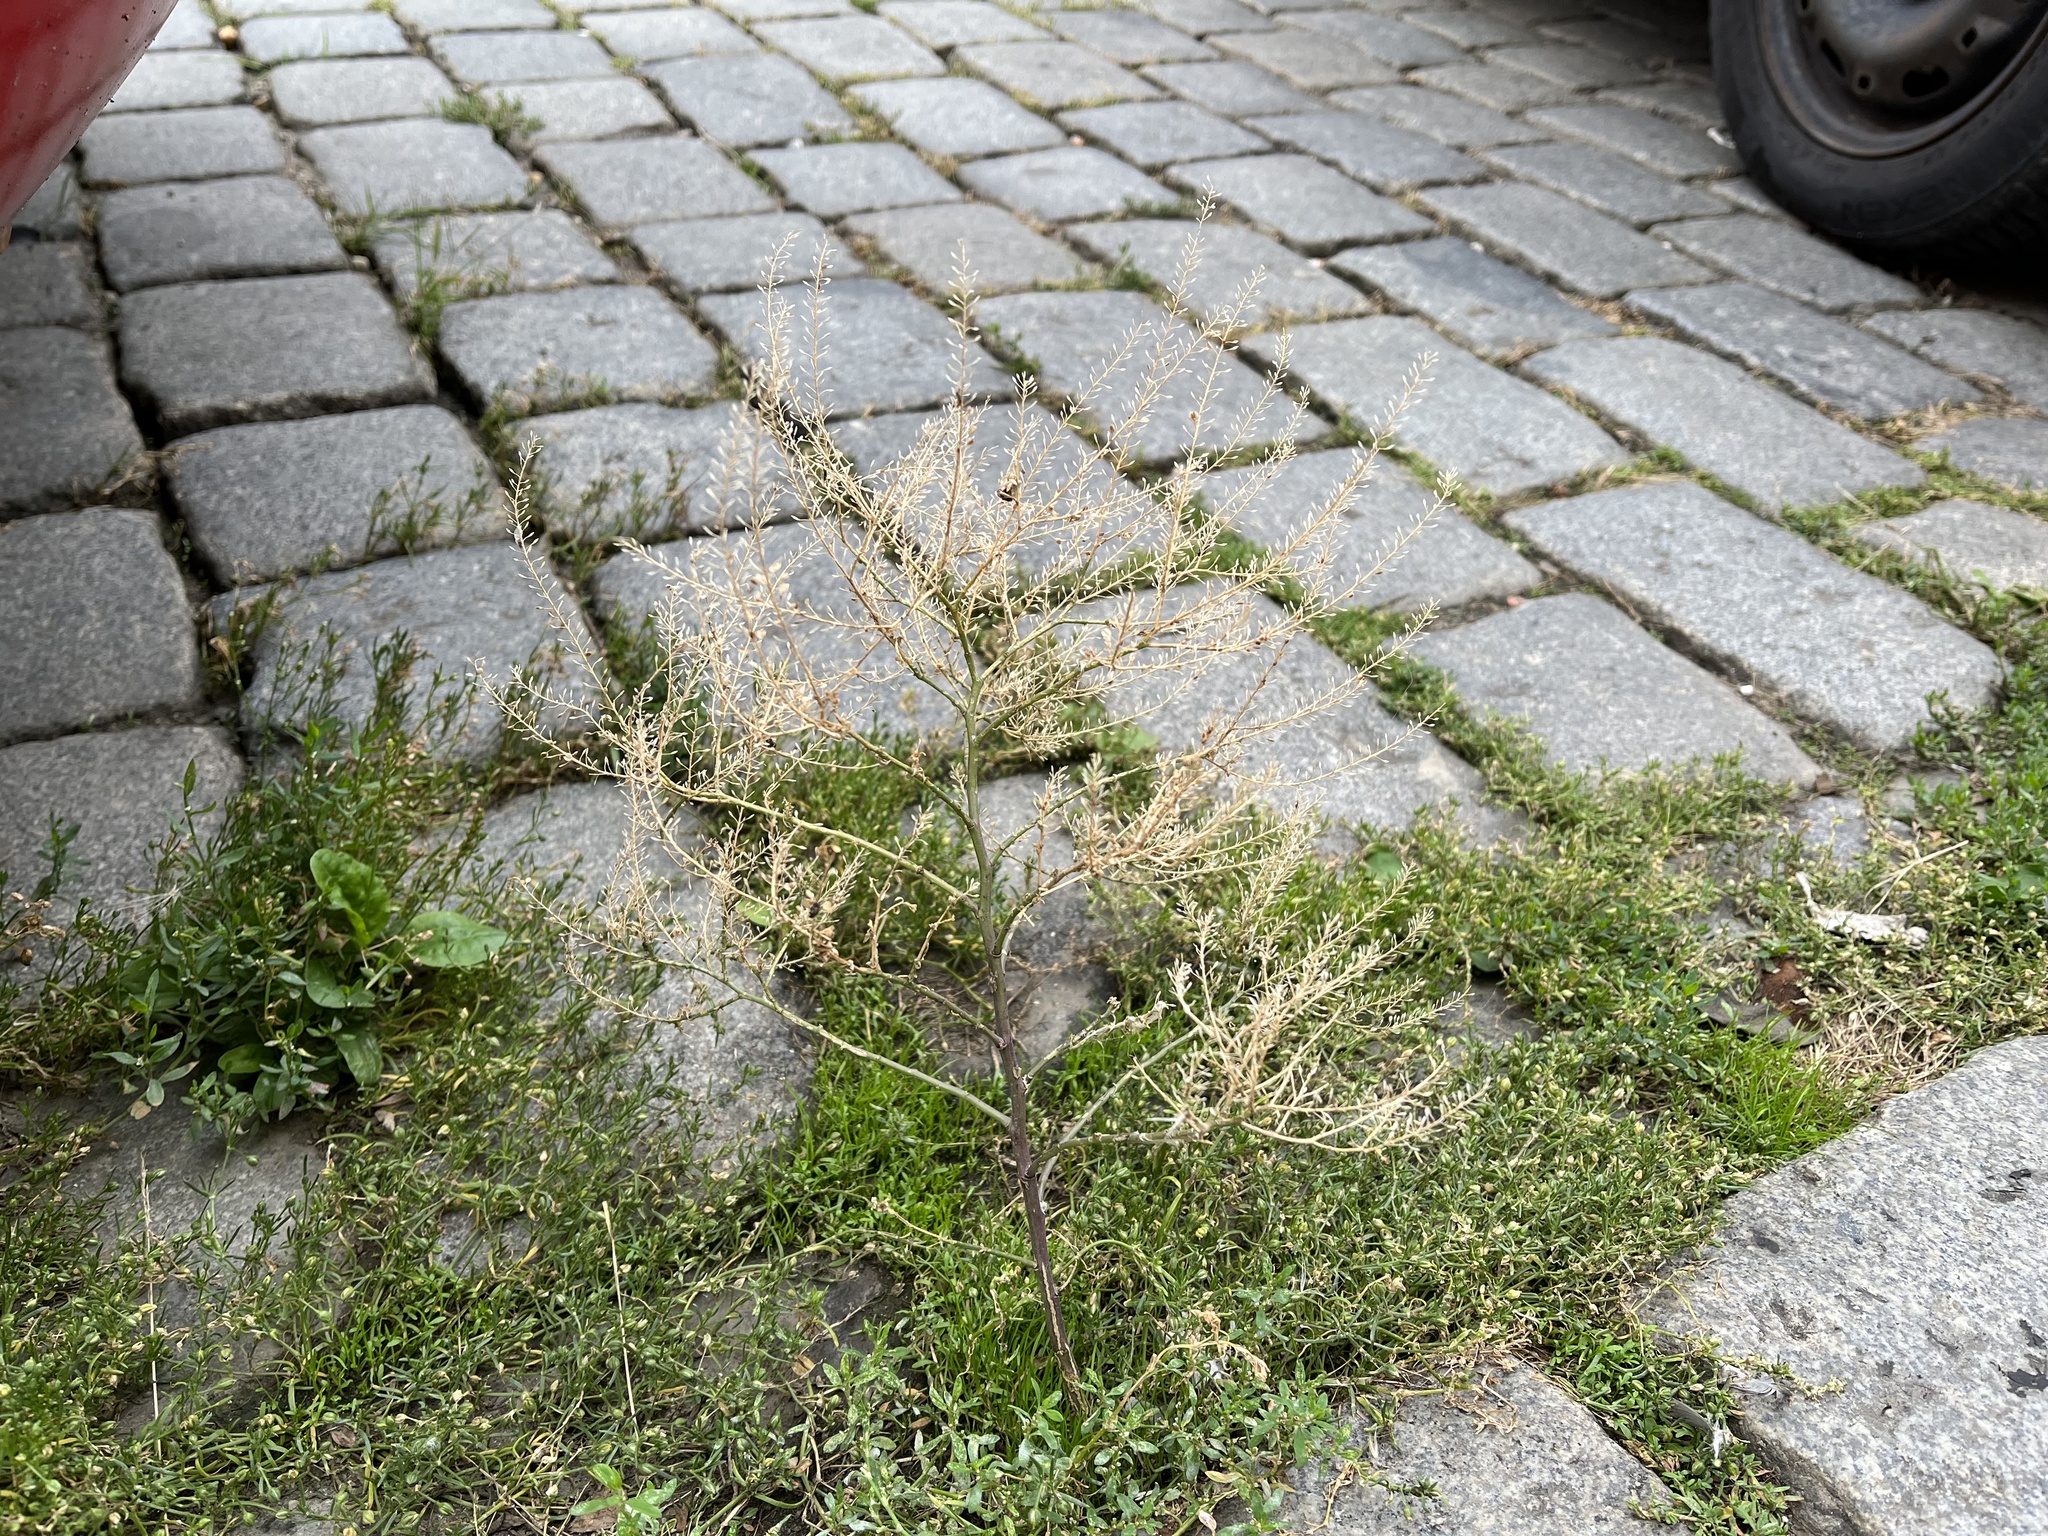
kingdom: Plantae
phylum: Tracheophyta
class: Magnoliopsida
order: Brassicales
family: Brassicaceae
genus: Lepidium
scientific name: Lepidium ruderale
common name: Narrow-leaved pepperwort
